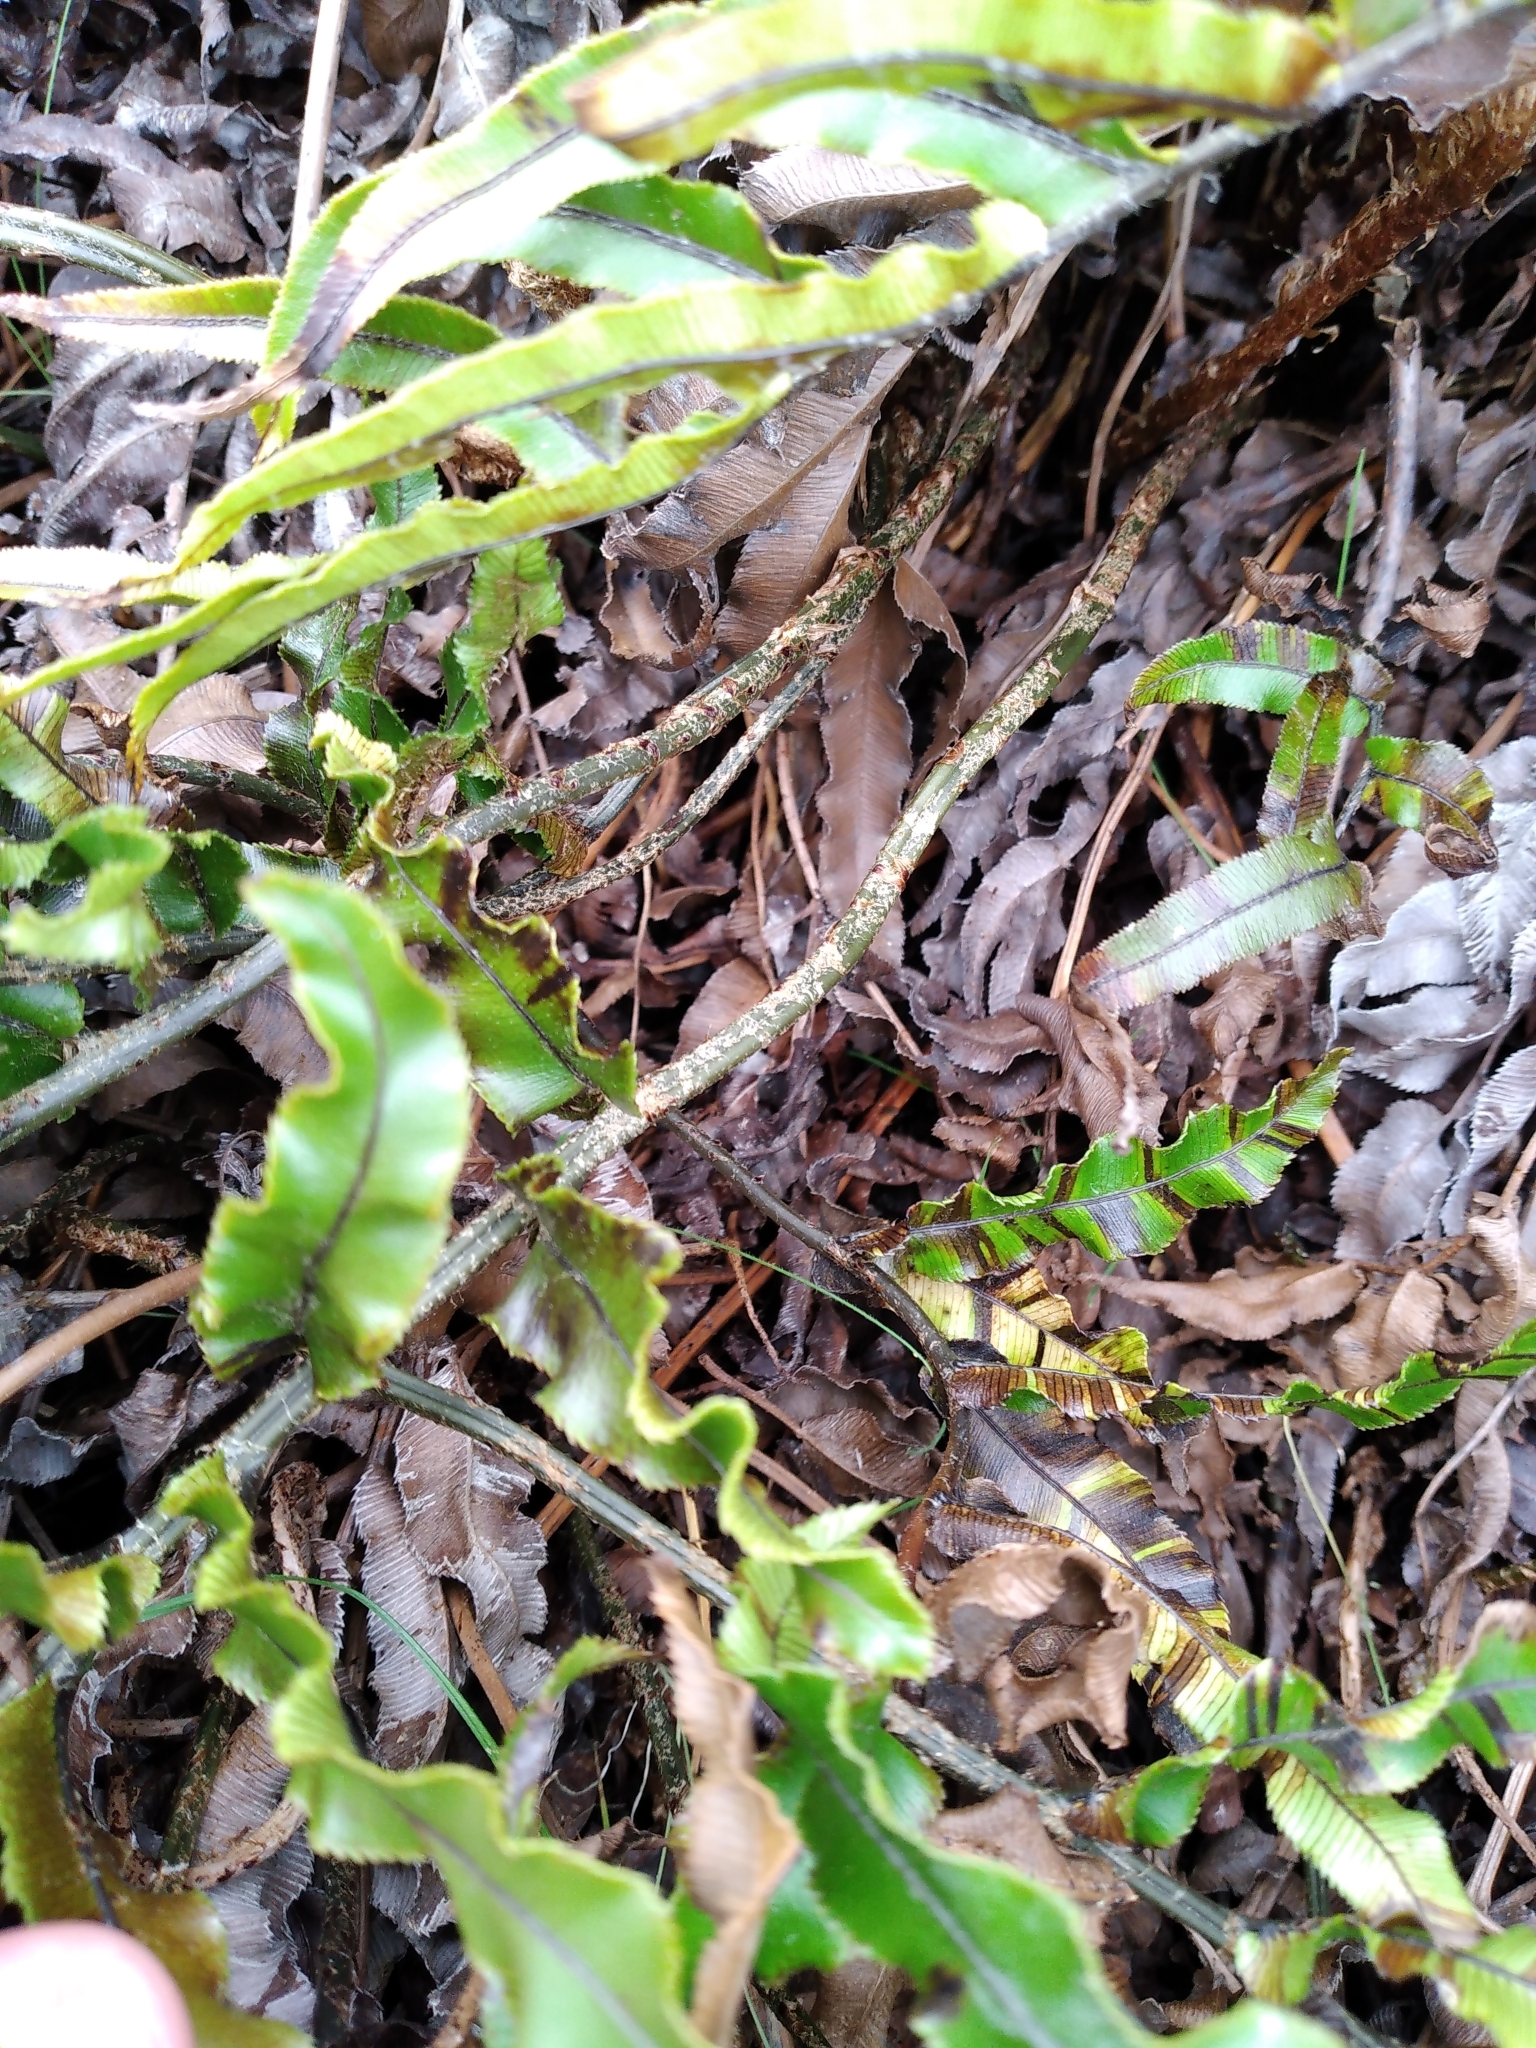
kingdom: Plantae
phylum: Tracheophyta
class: Polypodiopsida
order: Polypodiales
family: Blechnaceae
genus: Parablechnum
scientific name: Parablechnum montanum
